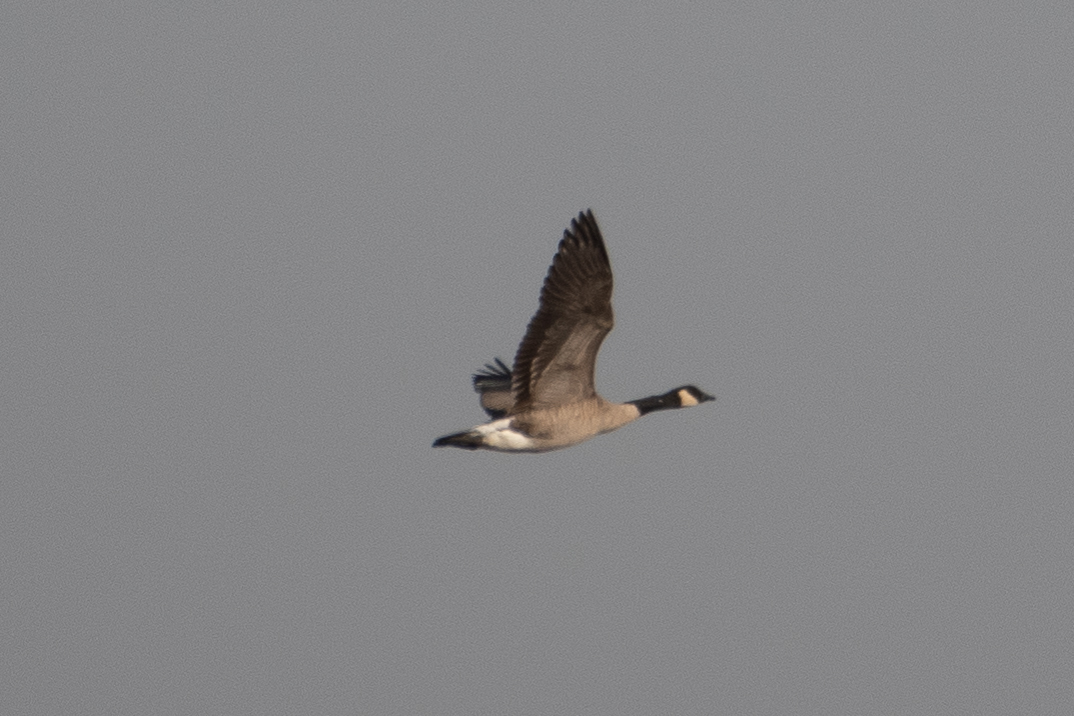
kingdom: Animalia
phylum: Chordata
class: Aves
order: Anseriformes
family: Anatidae
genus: Branta
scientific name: Branta canadensis
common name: Canada goose
